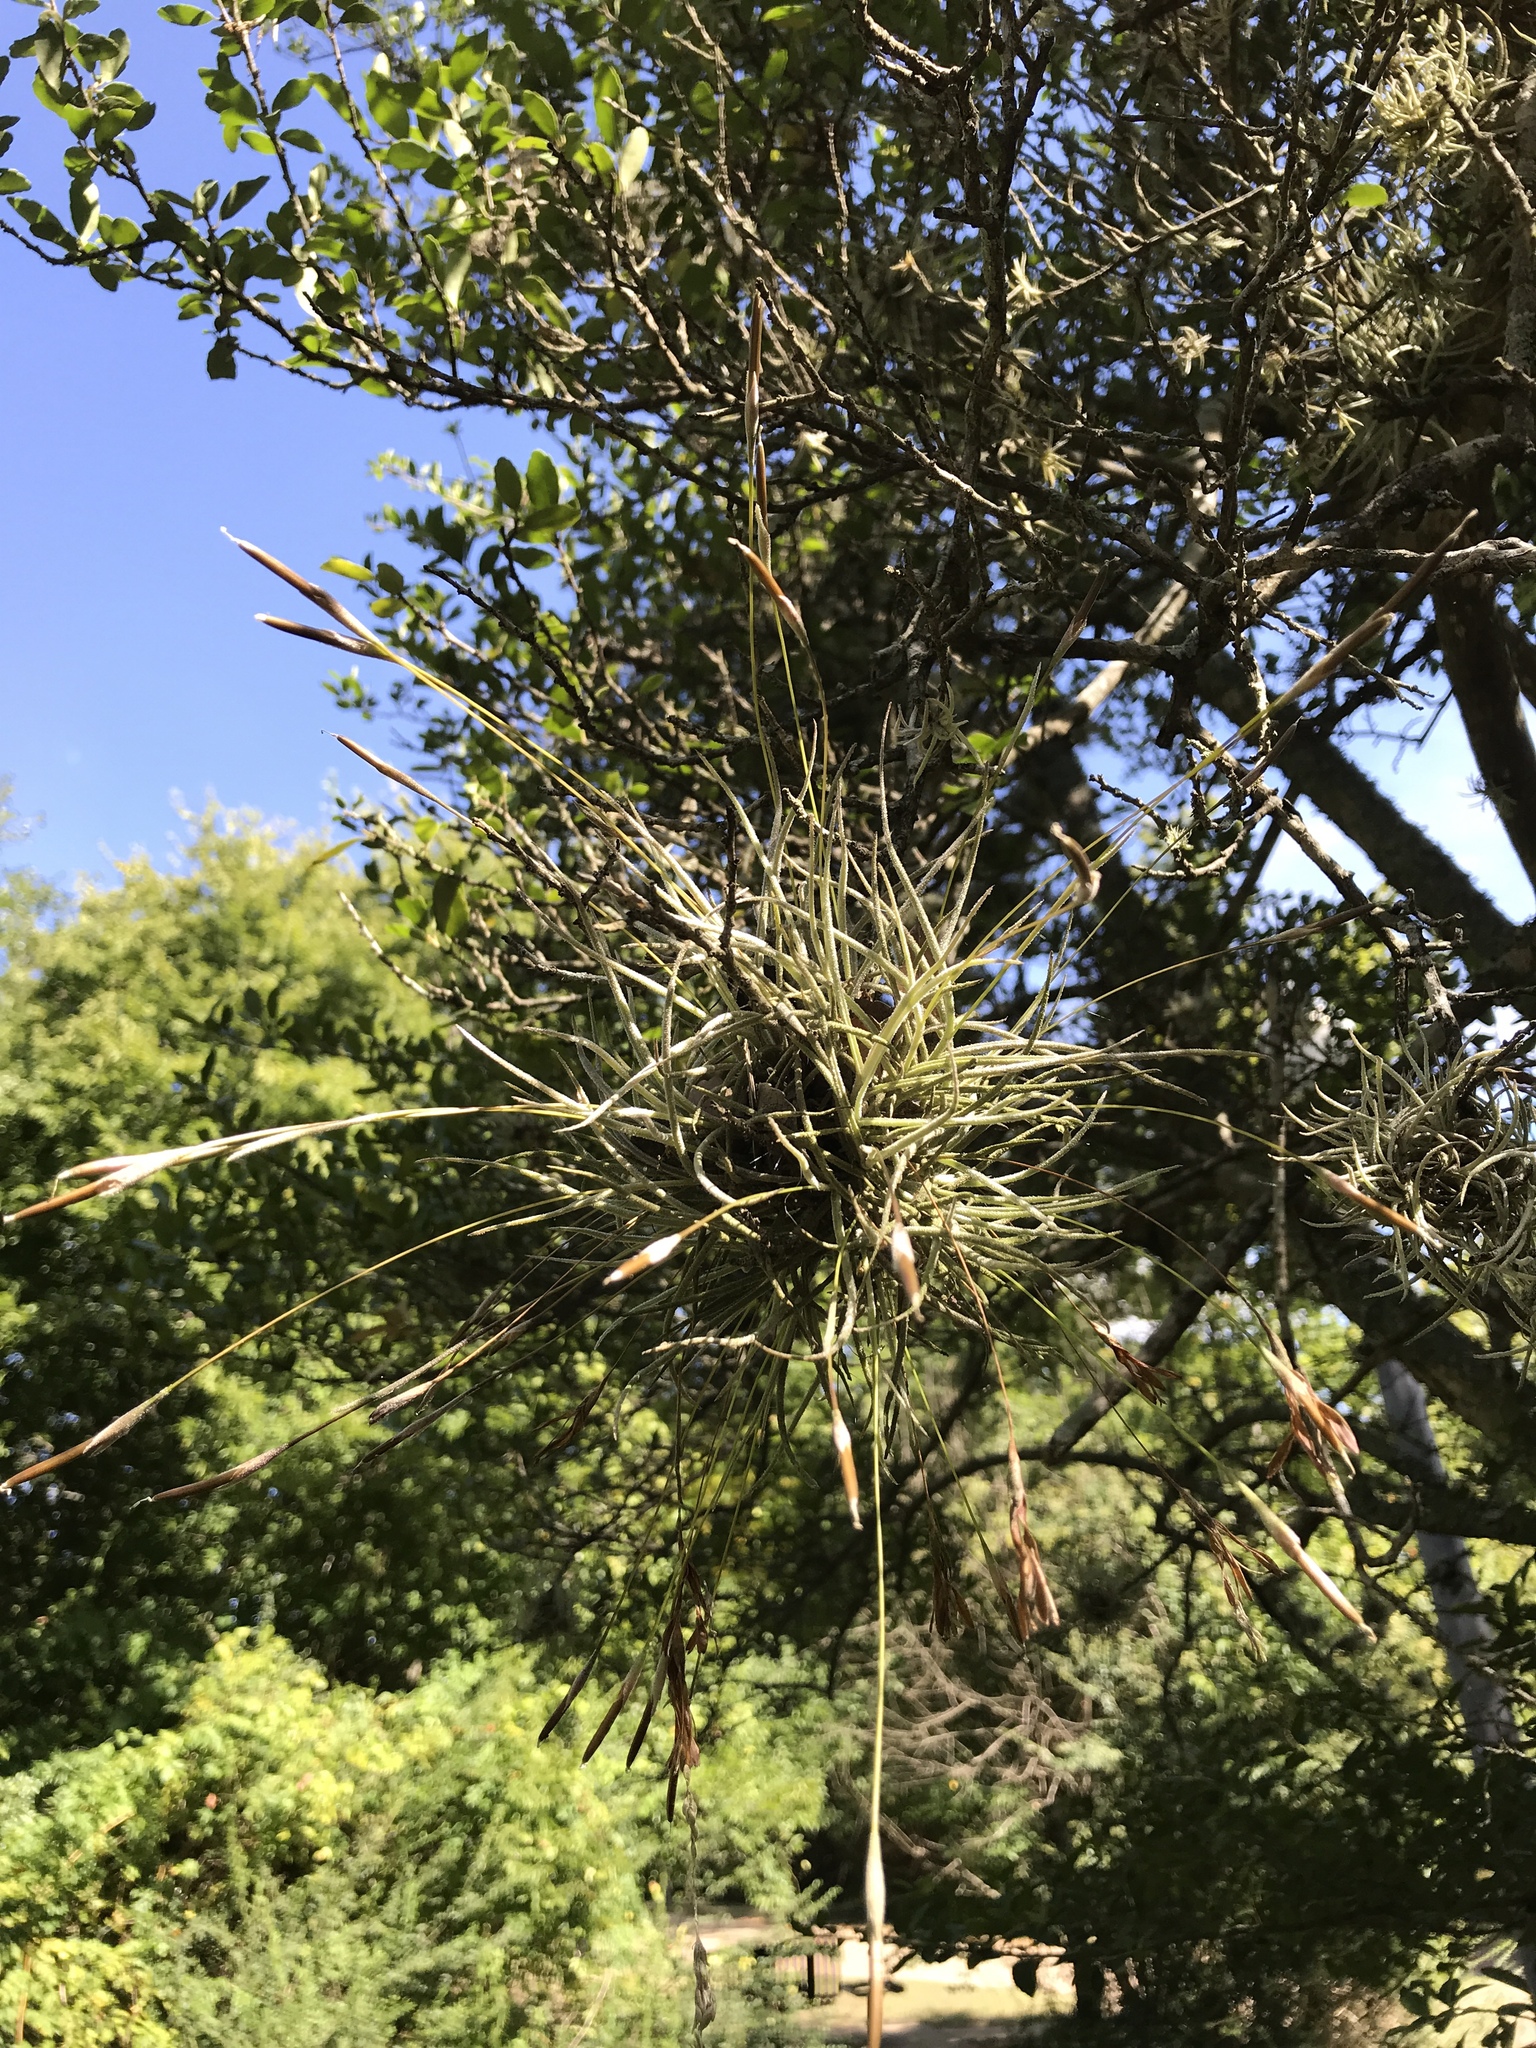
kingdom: Plantae
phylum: Tracheophyta
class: Liliopsida
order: Poales
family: Bromeliaceae
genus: Tillandsia
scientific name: Tillandsia recurvata
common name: Small ballmoss
